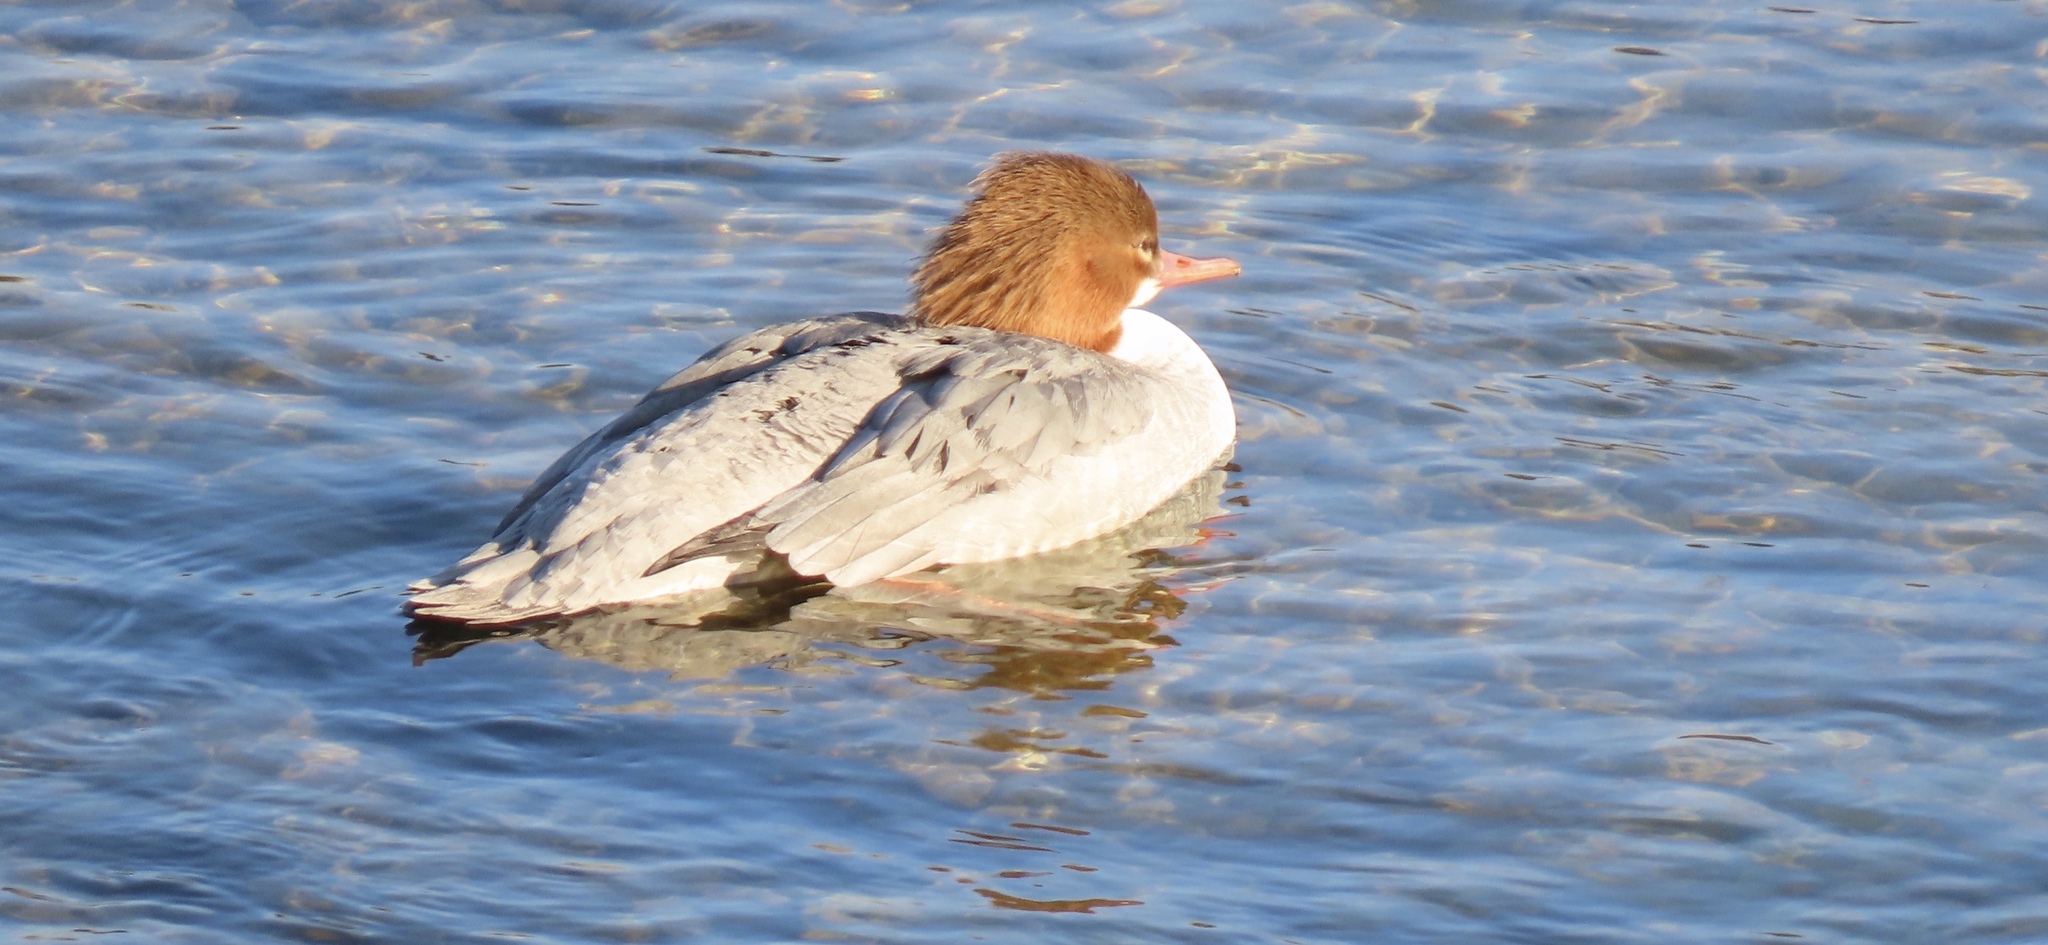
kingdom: Animalia
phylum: Chordata
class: Aves
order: Anseriformes
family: Anatidae
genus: Mergus
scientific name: Mergus merganser
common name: Common merganser
